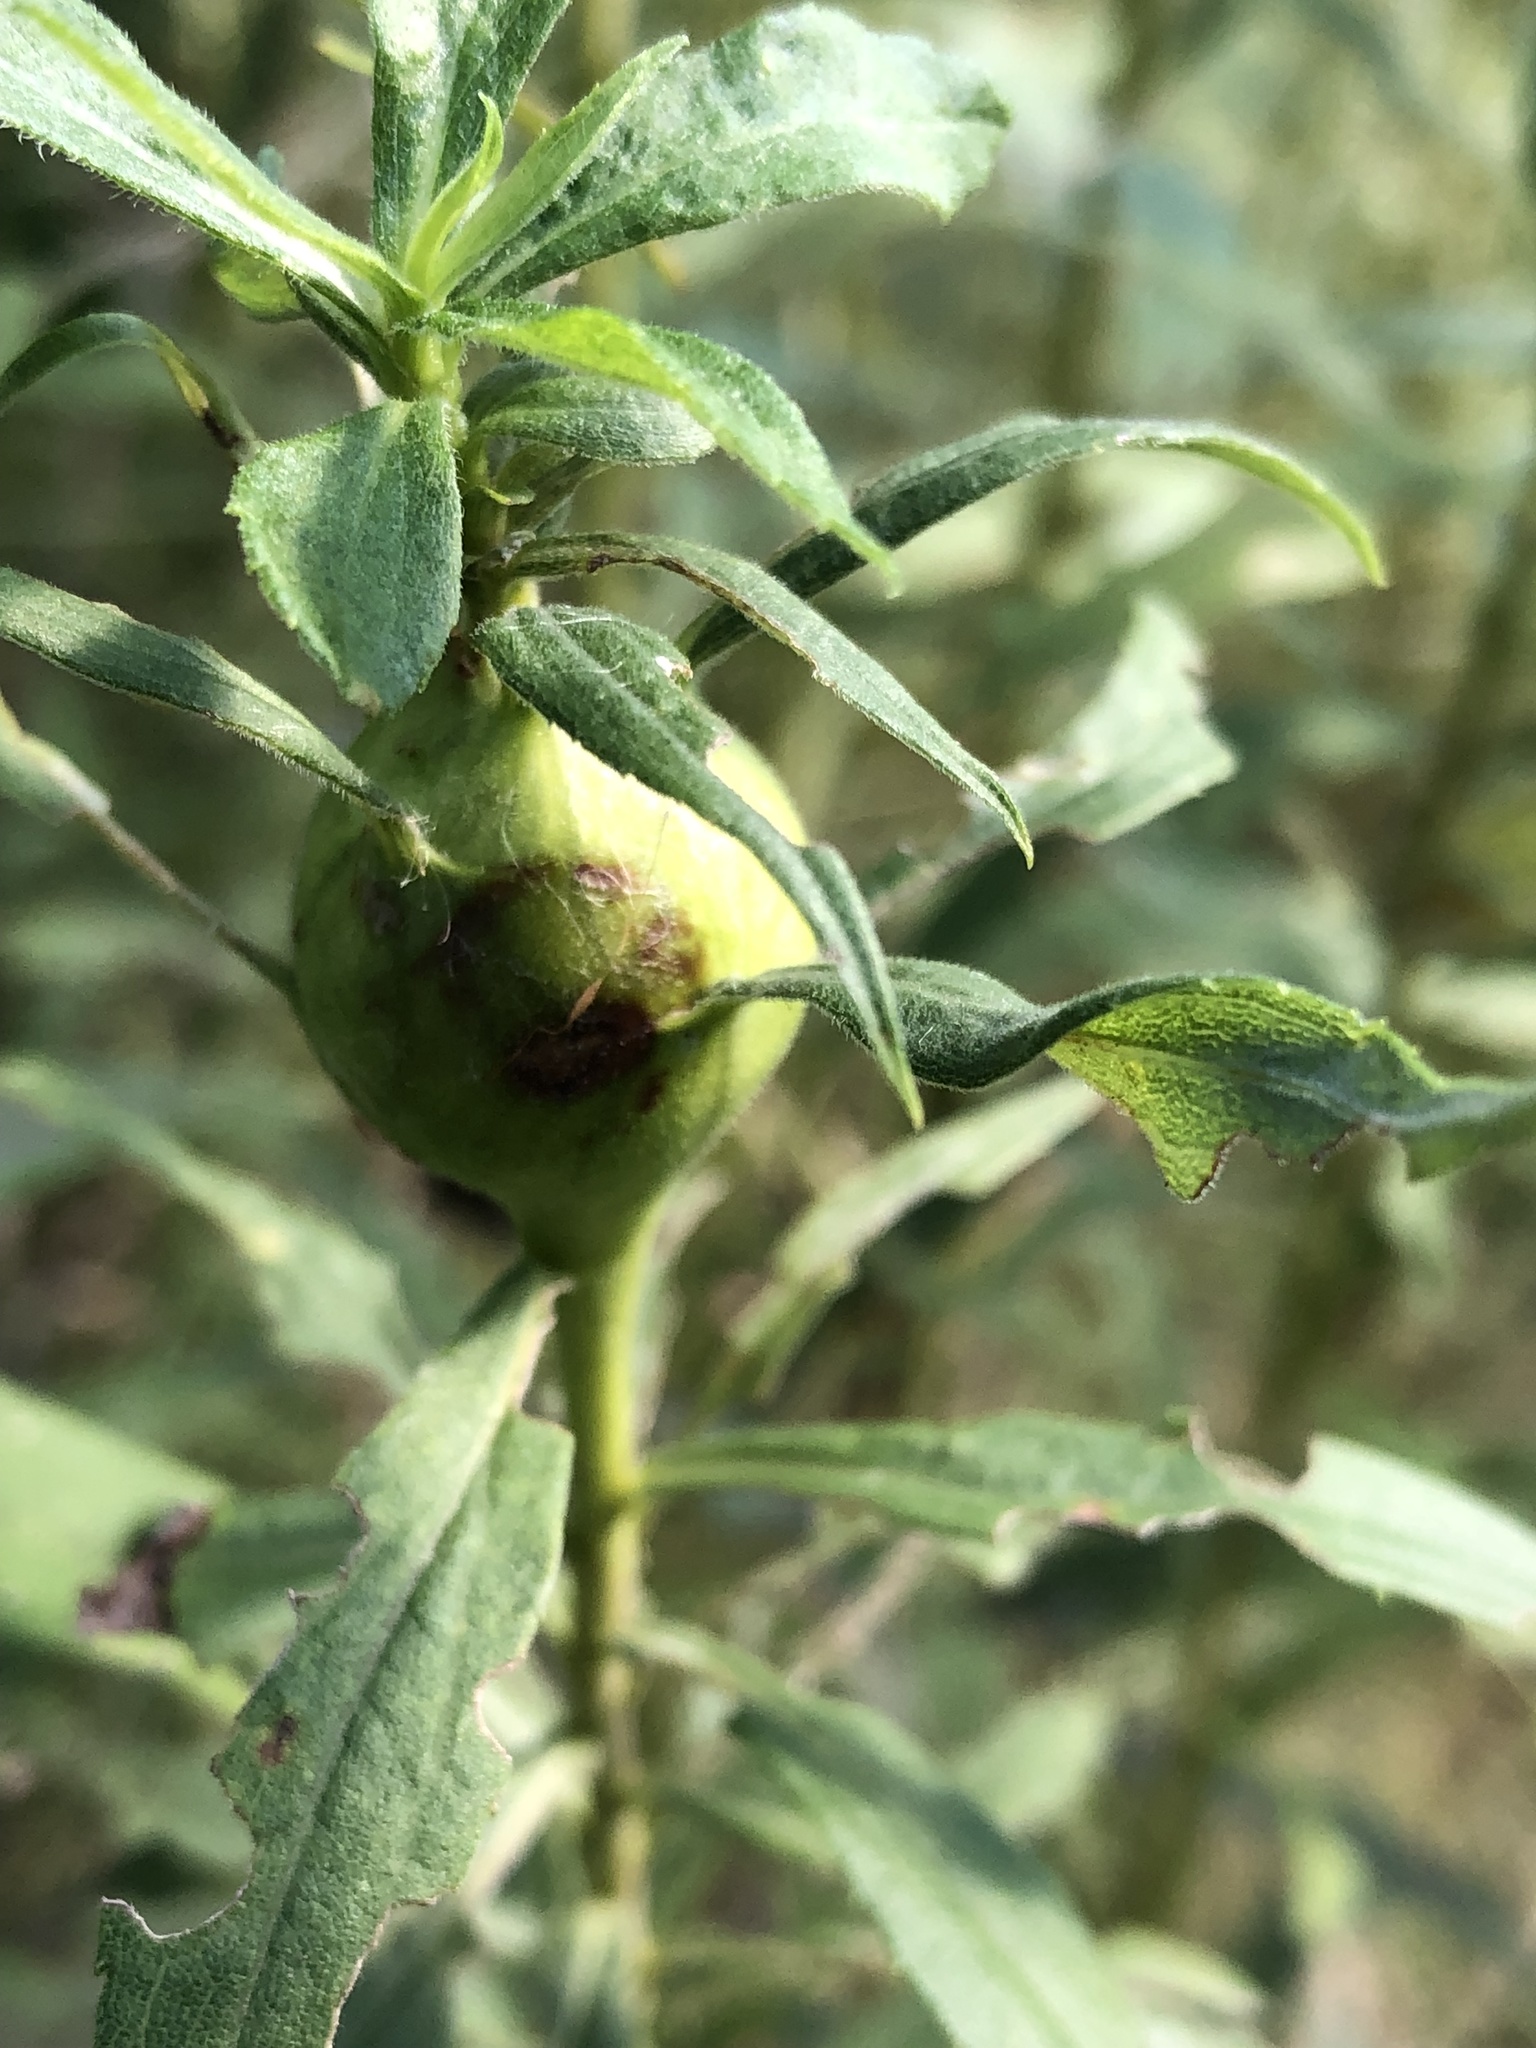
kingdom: Animalia
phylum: Arthropoda
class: Insecta
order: Diptera
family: Tephritidae
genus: Eurosta
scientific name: Eurosta solidaginis
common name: Goldenrod gall fly
